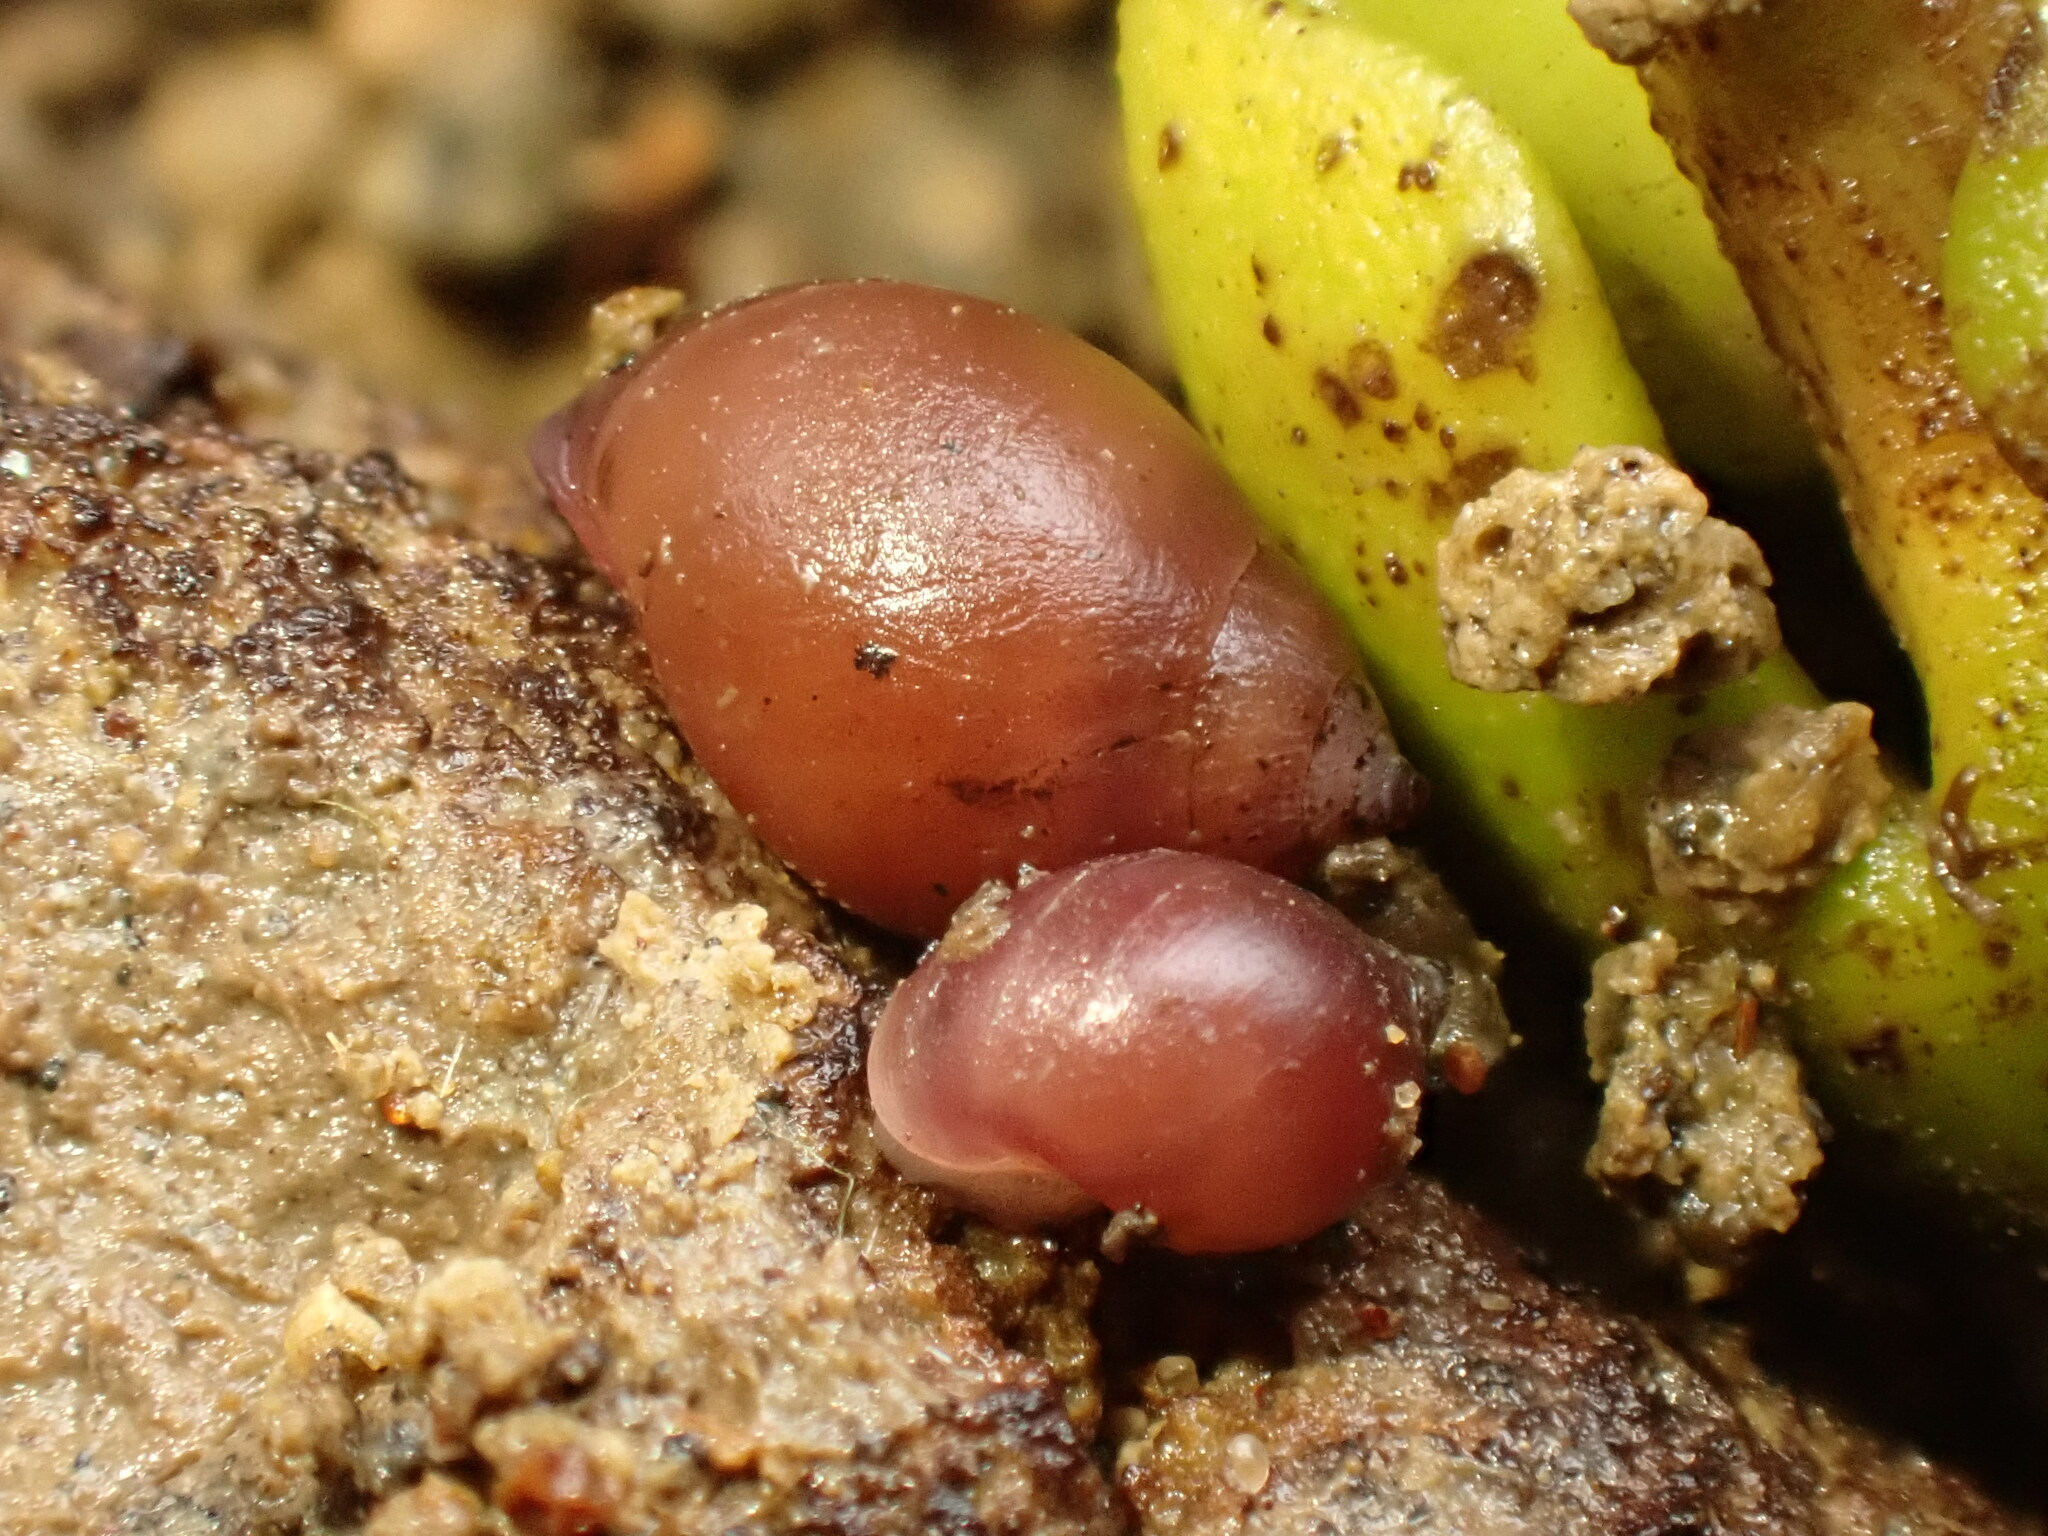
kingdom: Animalia
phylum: Mollusca
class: Gastropoda
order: Ellobiida
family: Ellobiidae
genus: Marinula
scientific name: Marinula filholi
